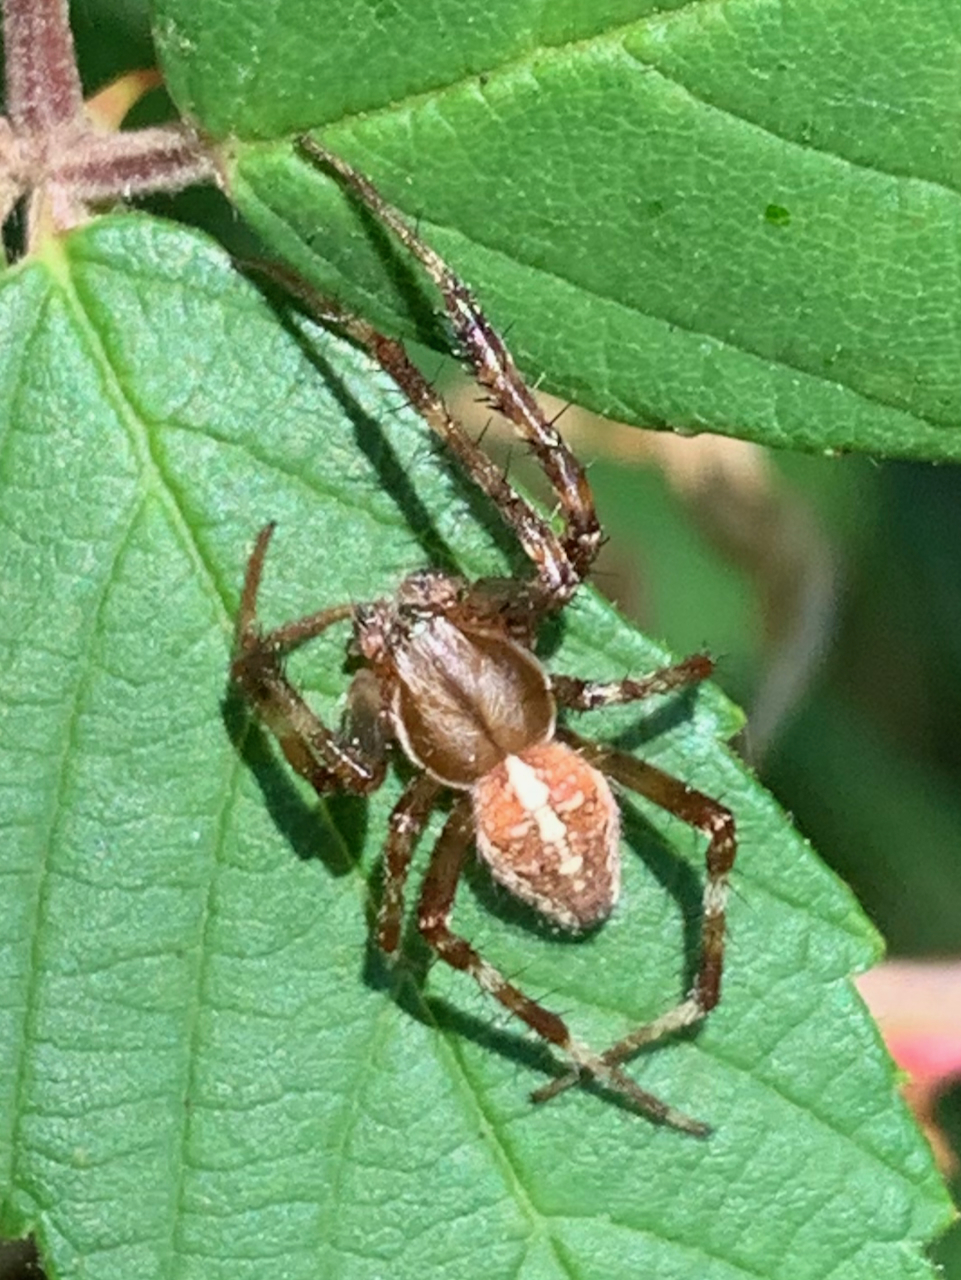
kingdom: Animalia
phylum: Arthropoda
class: Arachnida
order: Araneae
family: Araneidae
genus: Araneus
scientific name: Araneus diadematus
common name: Cross orbweaver
